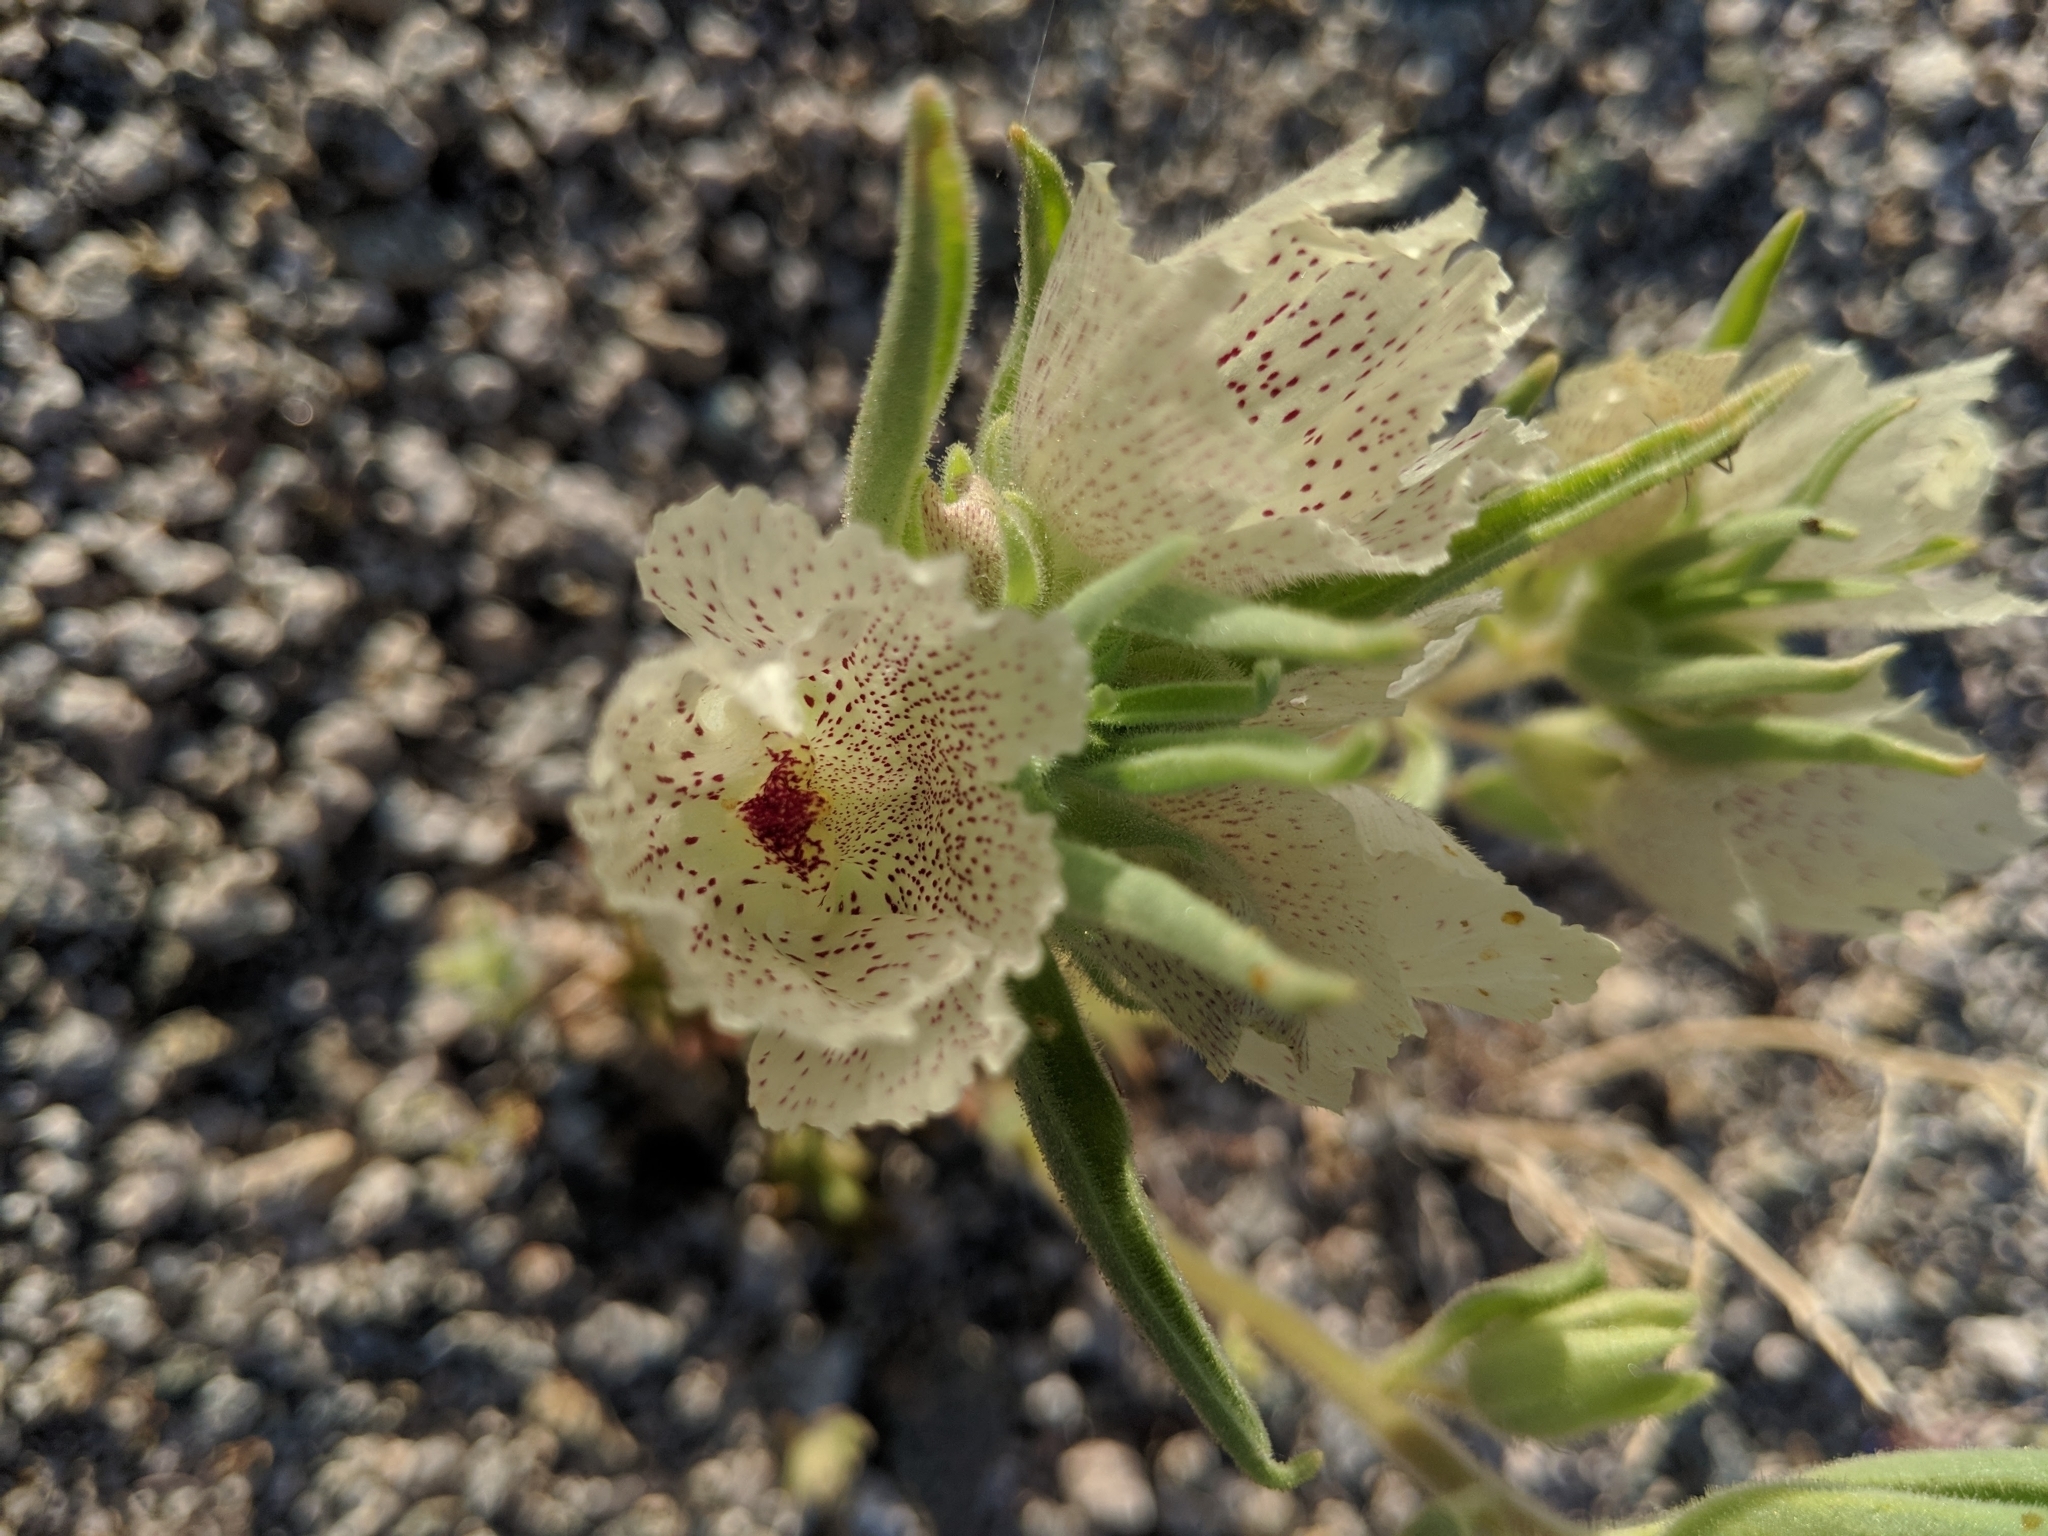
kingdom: Plantae
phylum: Tracheophyta
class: Magnoliopsida
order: Lamiales
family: Plantaginaceae
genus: Mohavea
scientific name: Mohavea confertiflora
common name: Ghost flower
